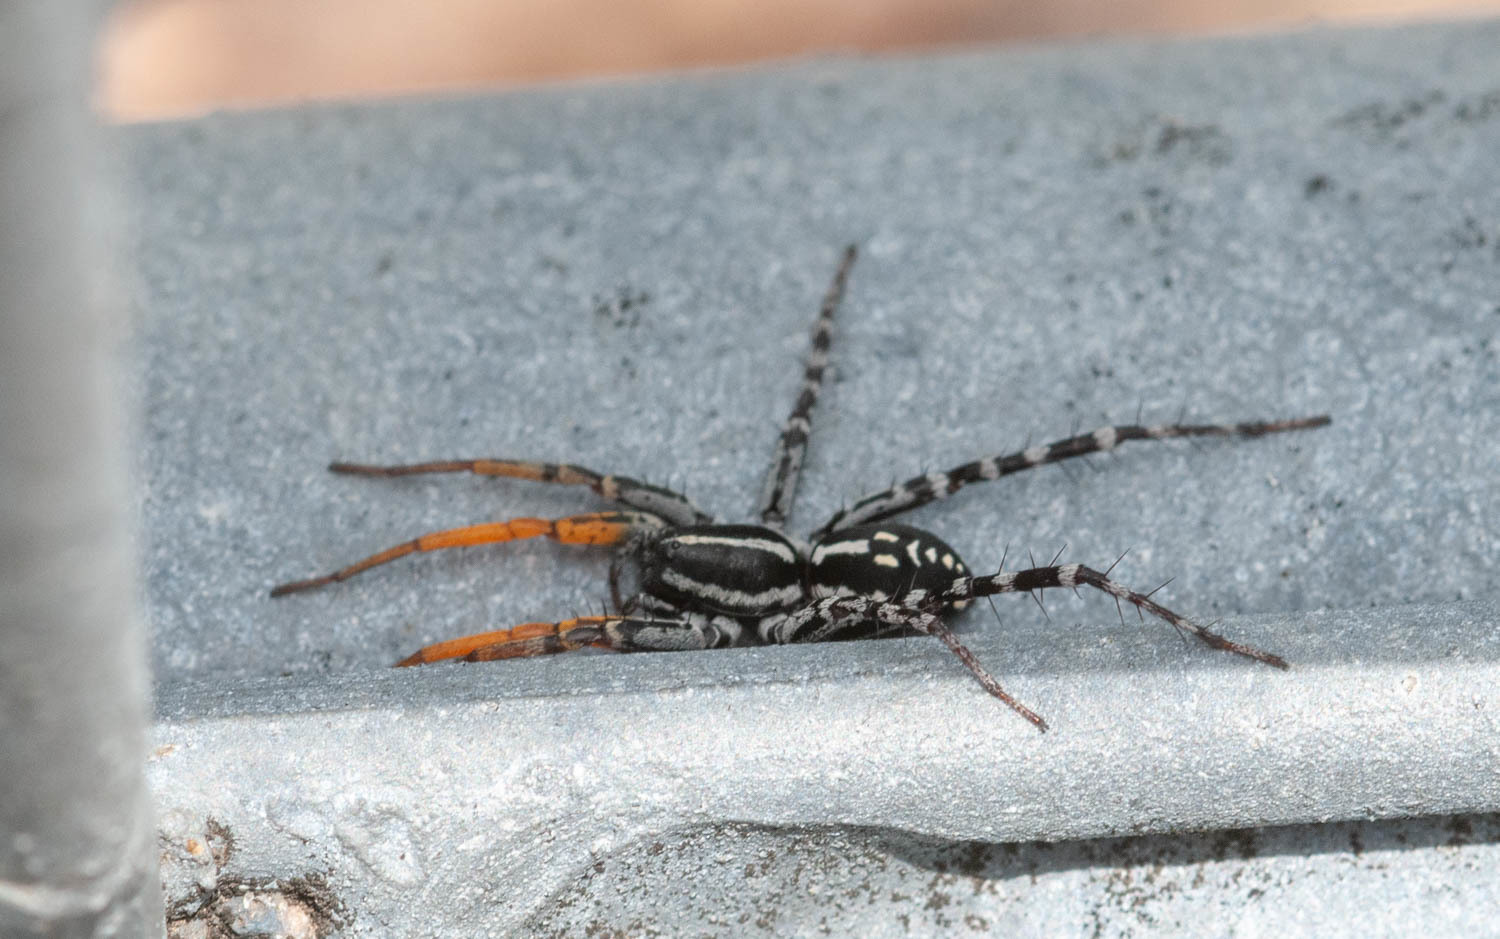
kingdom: Animalia
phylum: Arthropoda
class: Arachnida
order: Araneae
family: Corinnidae
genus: Nyssus
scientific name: Nyssus coloripes
